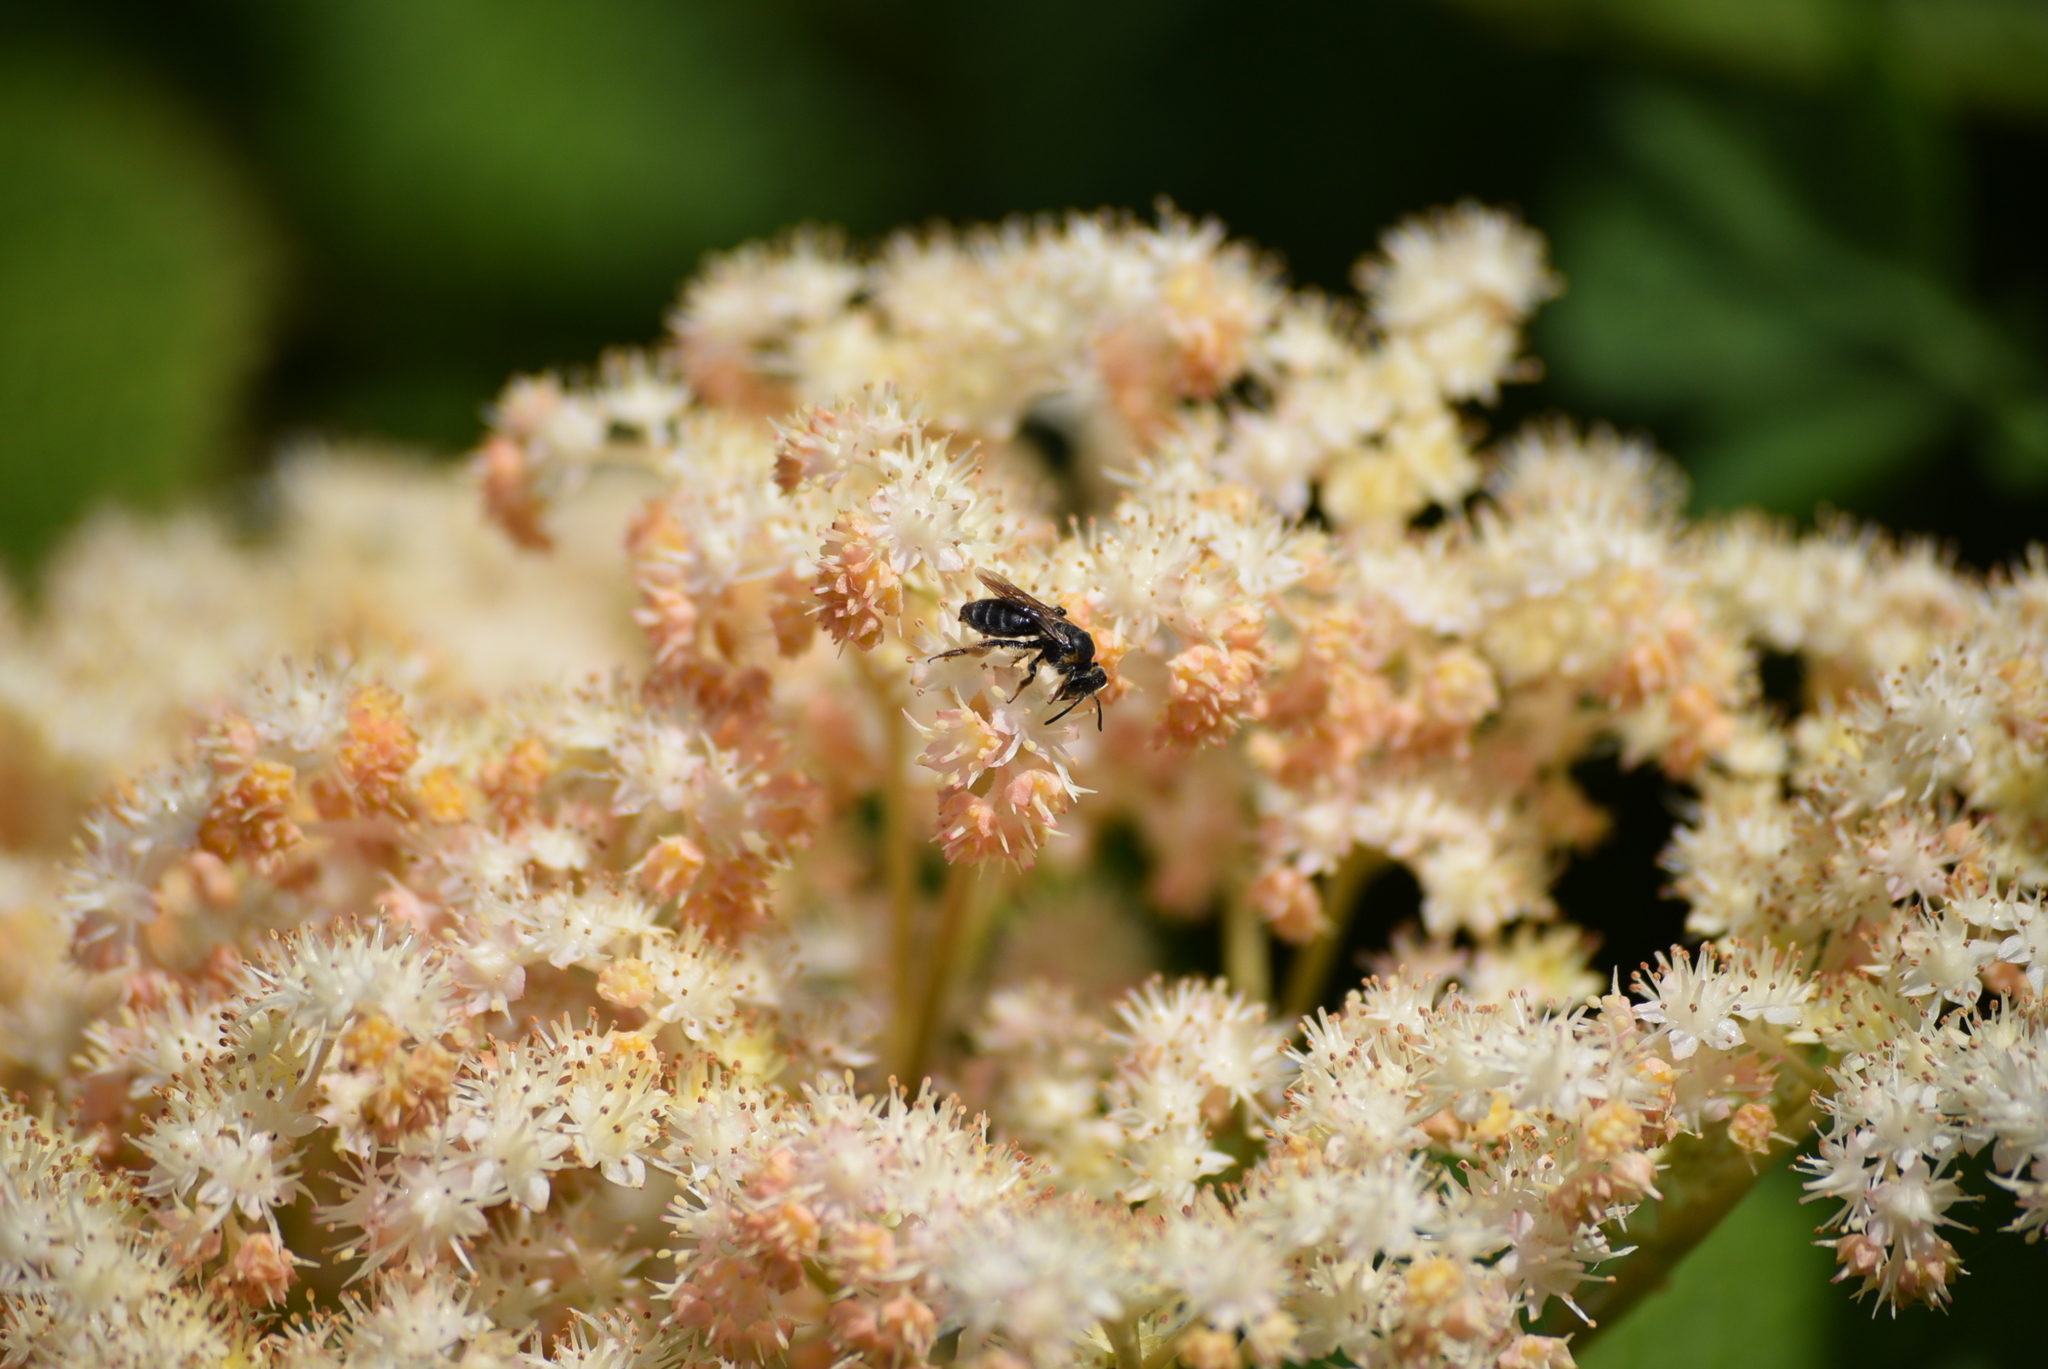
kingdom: Animalia
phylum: Arthropoda
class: Insecta
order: Hymenoptera
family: Andrenidae
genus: Andrena
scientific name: Andrena alleghaniensis
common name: Allegheny mining bee
